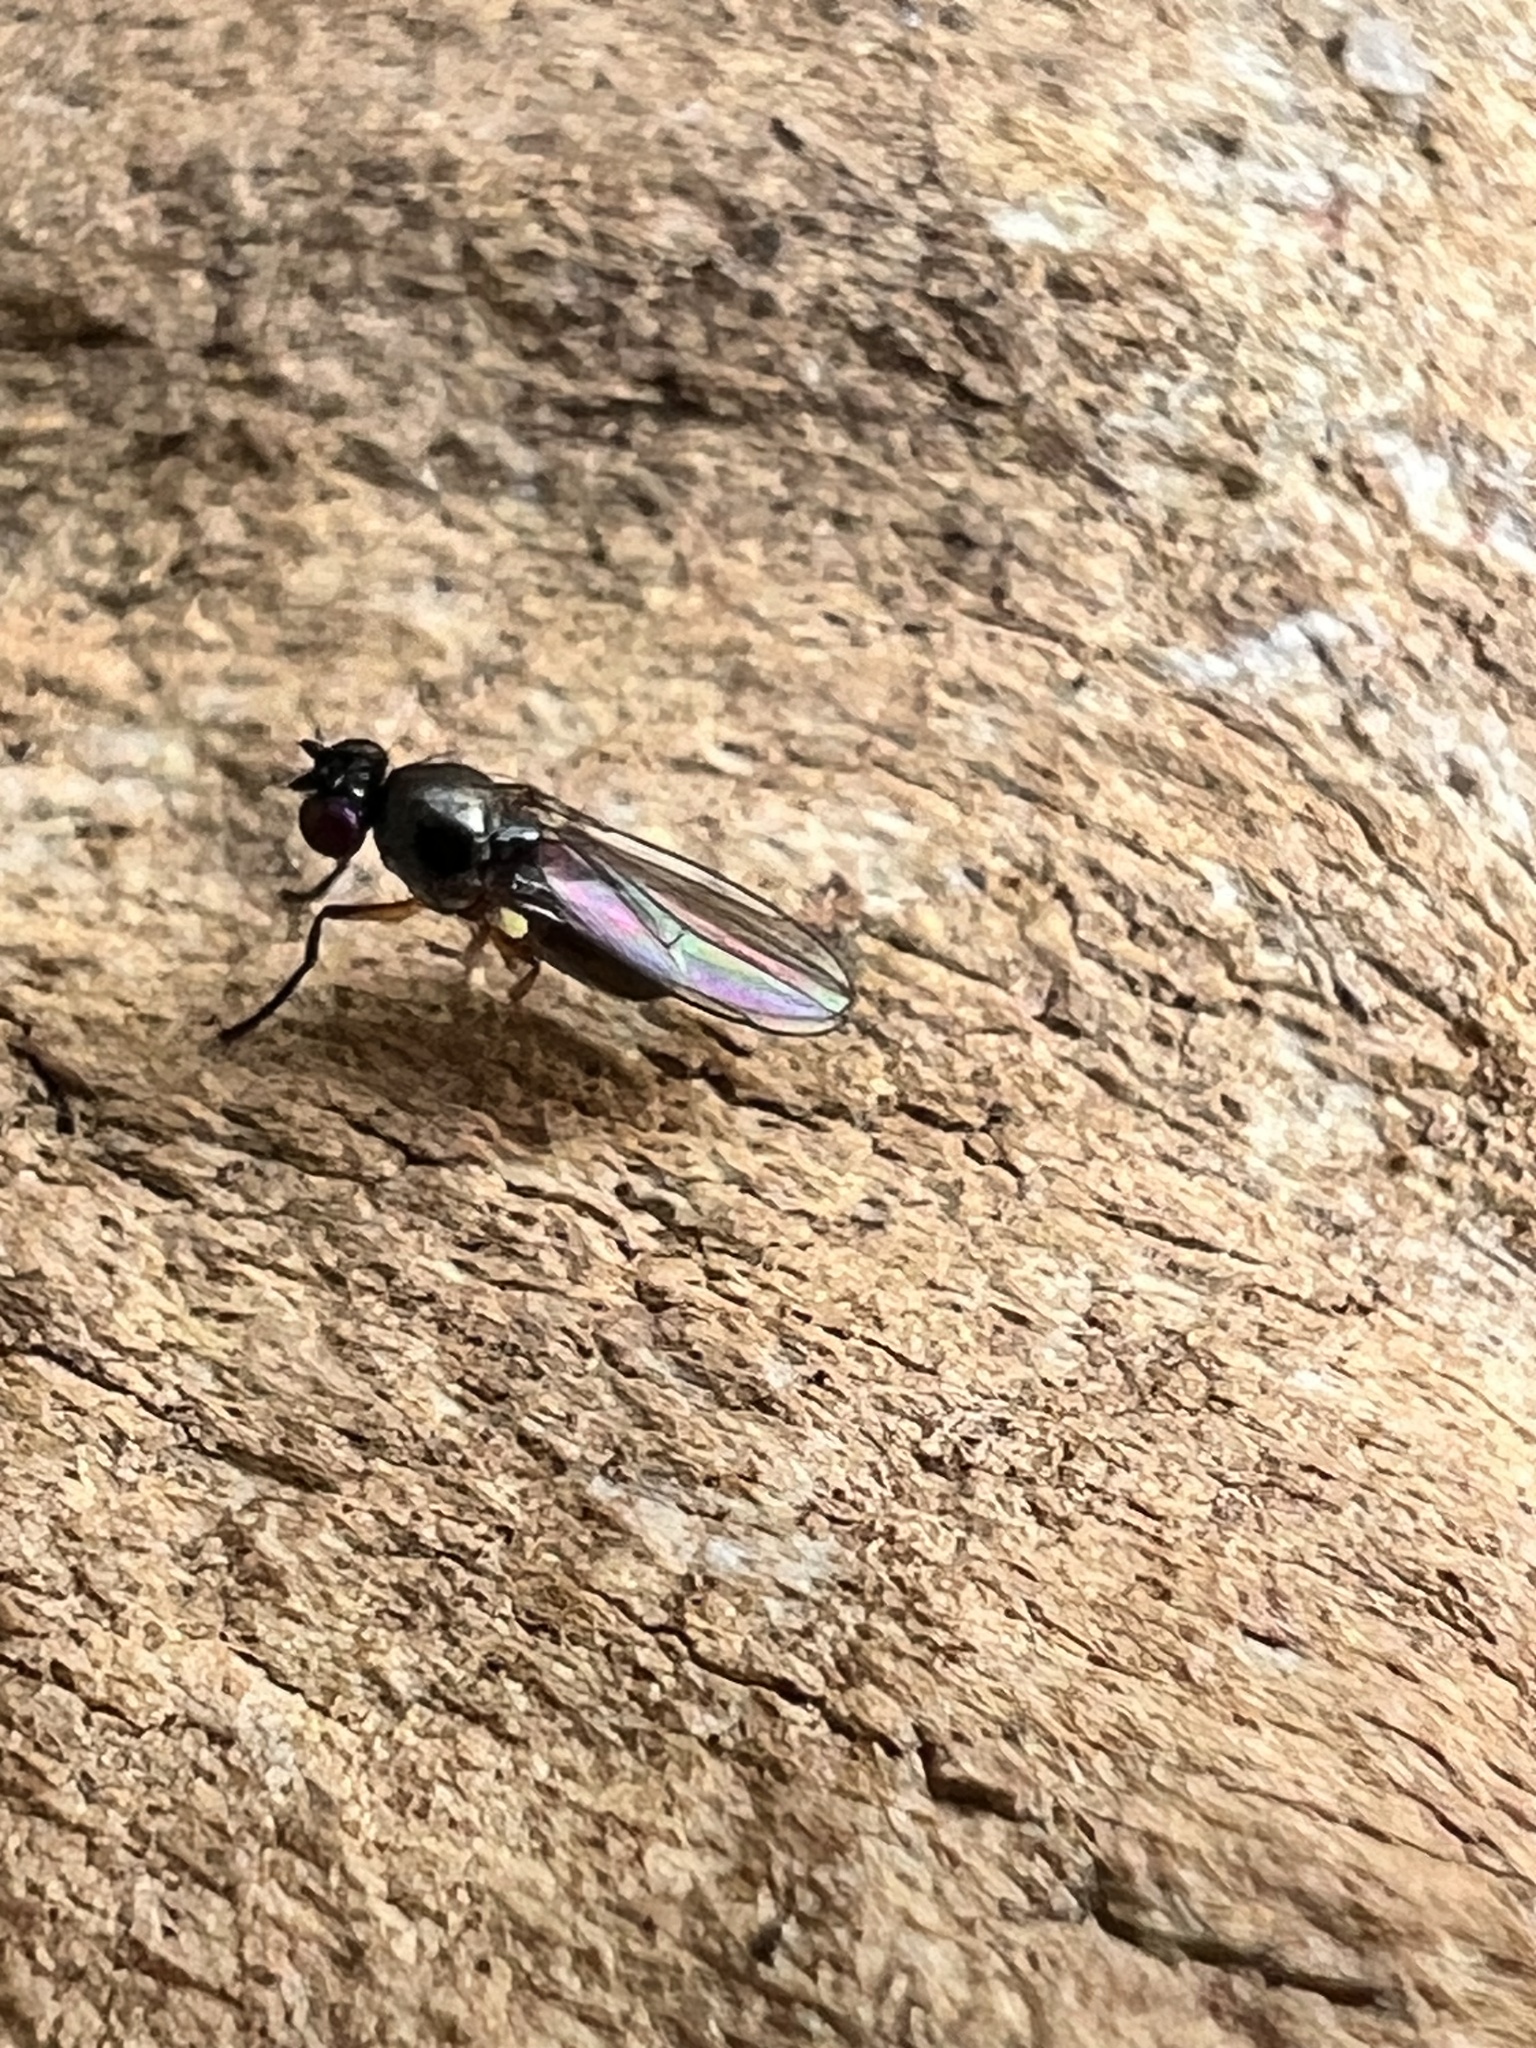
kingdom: Animalia
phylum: Arthropoda
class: Insecta
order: Diptera
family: Ephydridae
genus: Hydrellia
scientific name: Hydrellia tritici
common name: Shore fly
